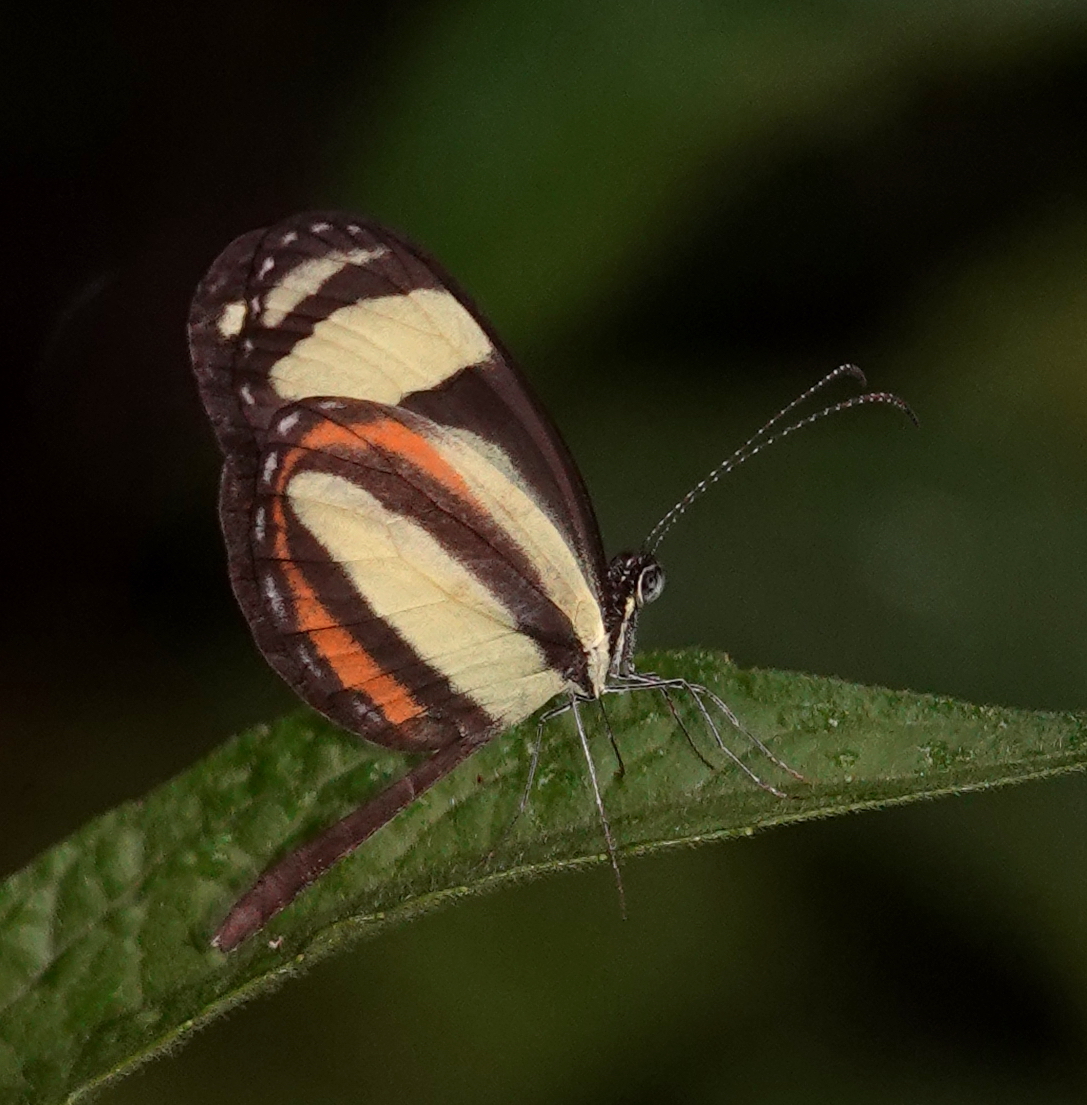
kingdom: Animalia
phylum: Arthropoda
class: Insecta
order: Lepidoptera
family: Pieridae
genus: Moschoneura
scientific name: Moschoneura
